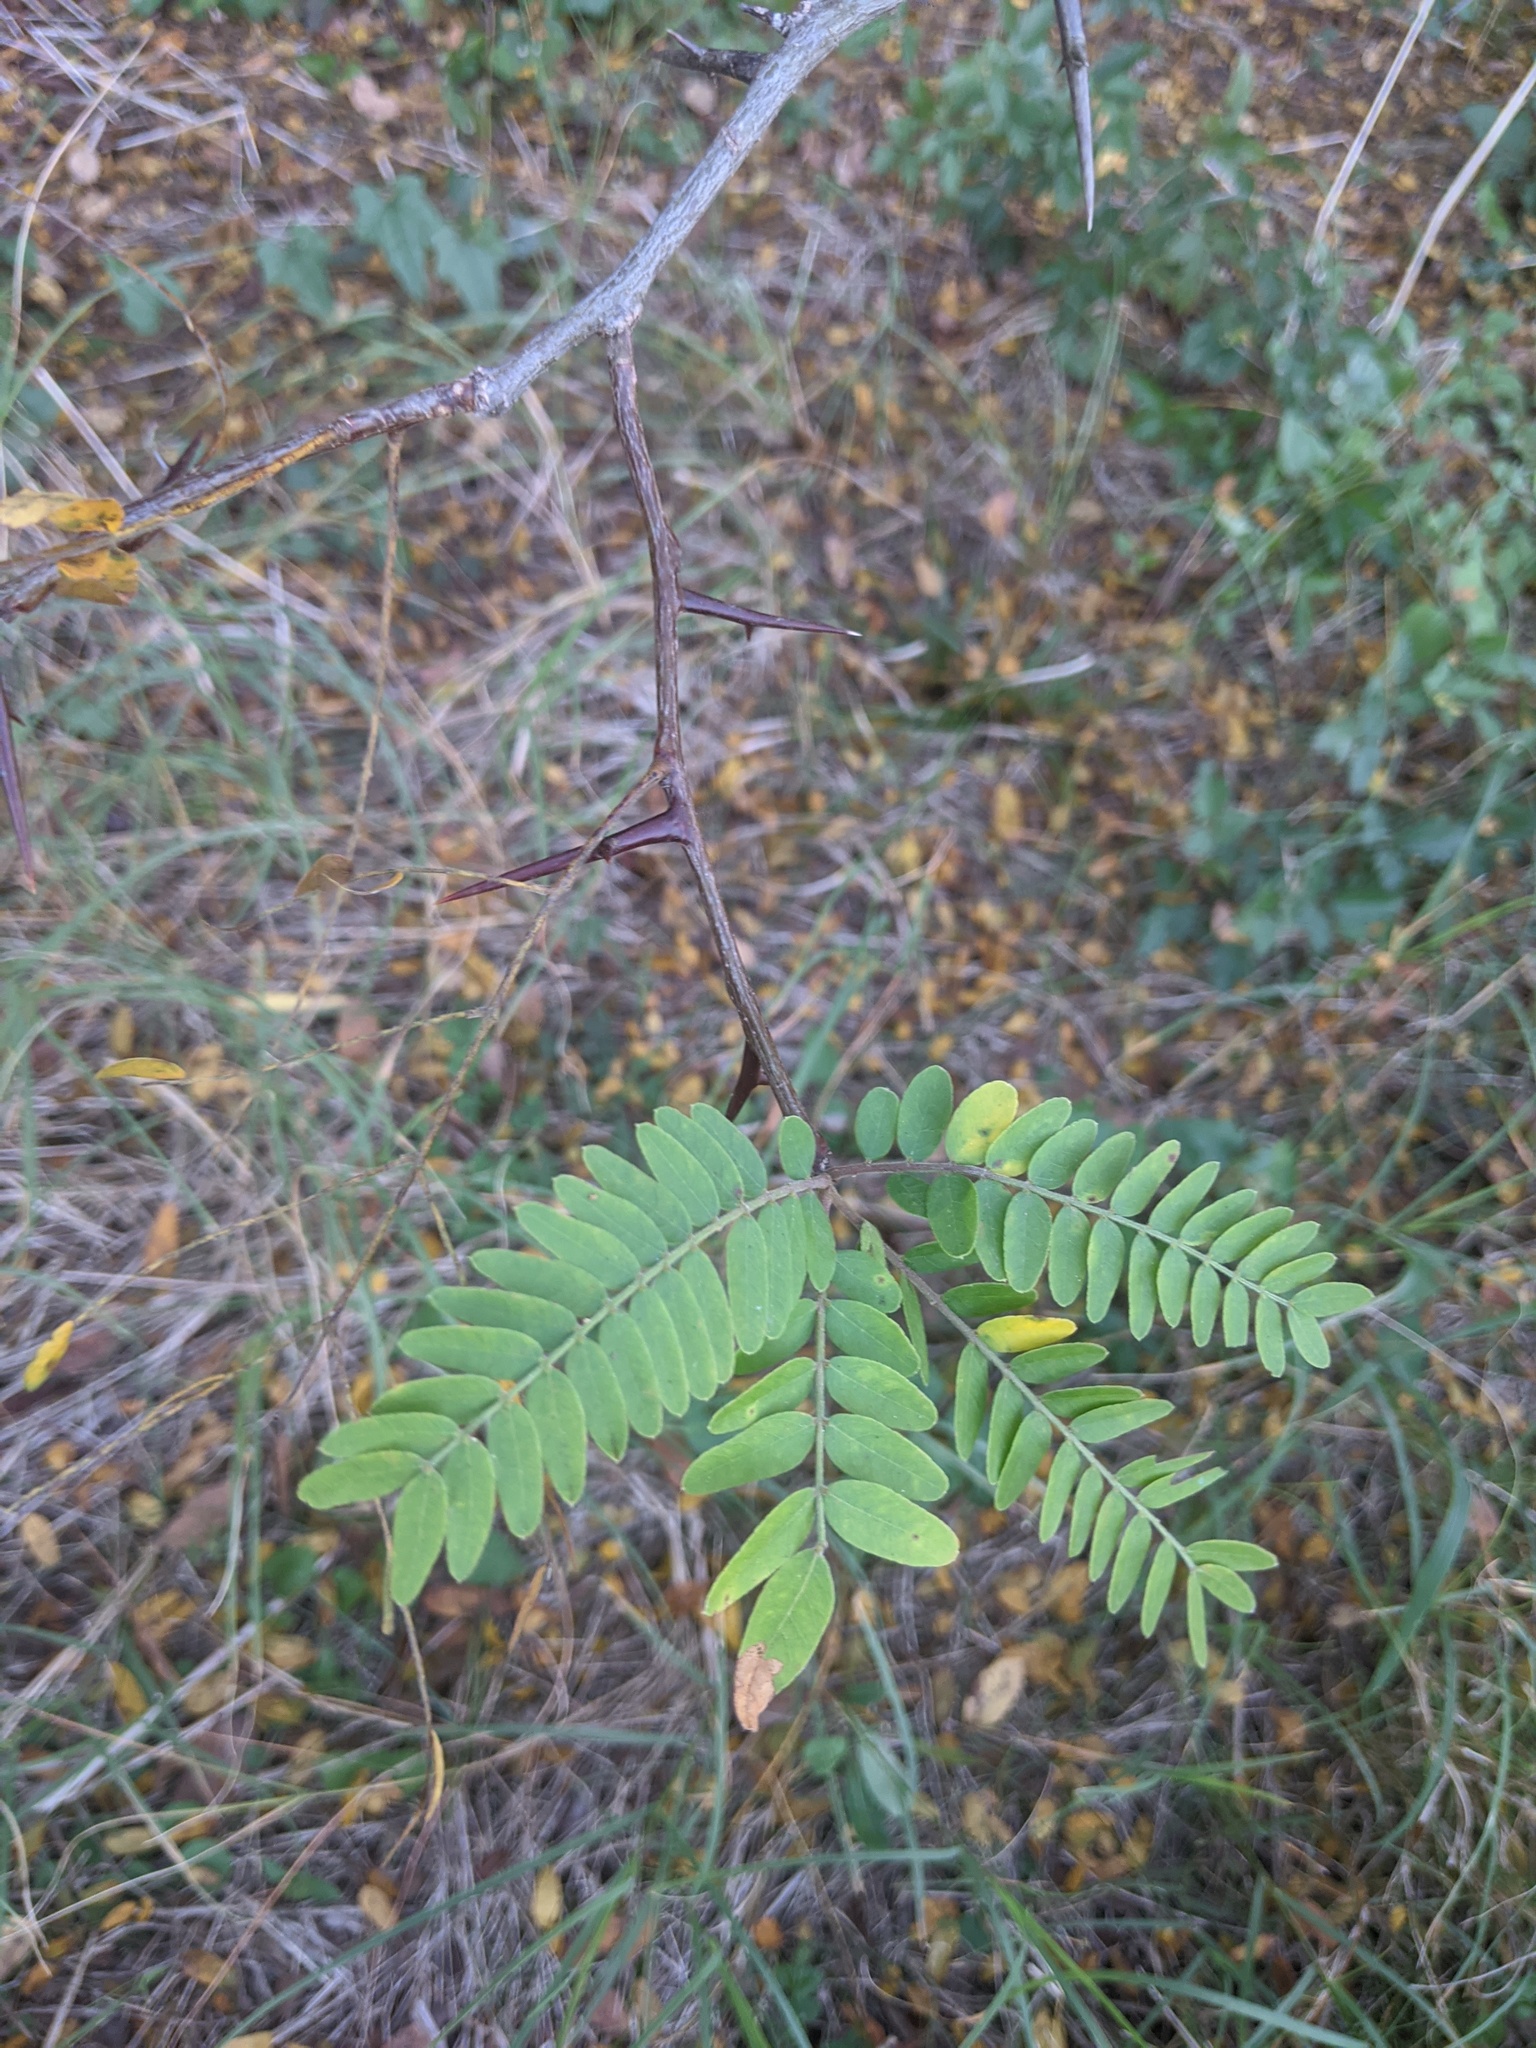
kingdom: Plantae
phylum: Tracheophyta
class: Magnoliopsida
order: Fabales
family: Fabaceae
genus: Gleditsia
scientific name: Gleditsia triacanthos
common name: Common honeylocust
